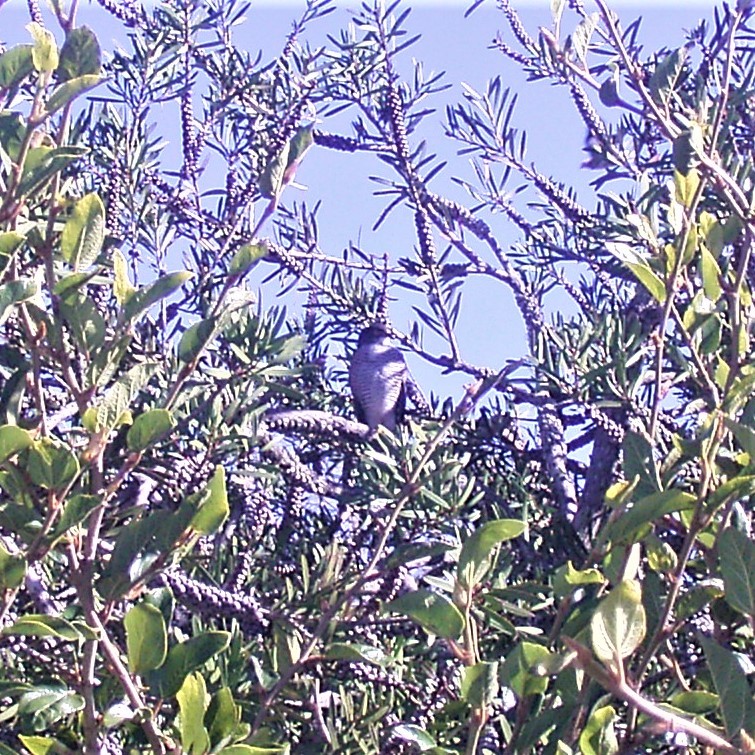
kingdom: Animalia
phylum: Chordata
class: Aves
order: Accipitriformes
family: Accipitridae
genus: Accipiter
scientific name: Accipiter minullus
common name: Little sparrowhawk
